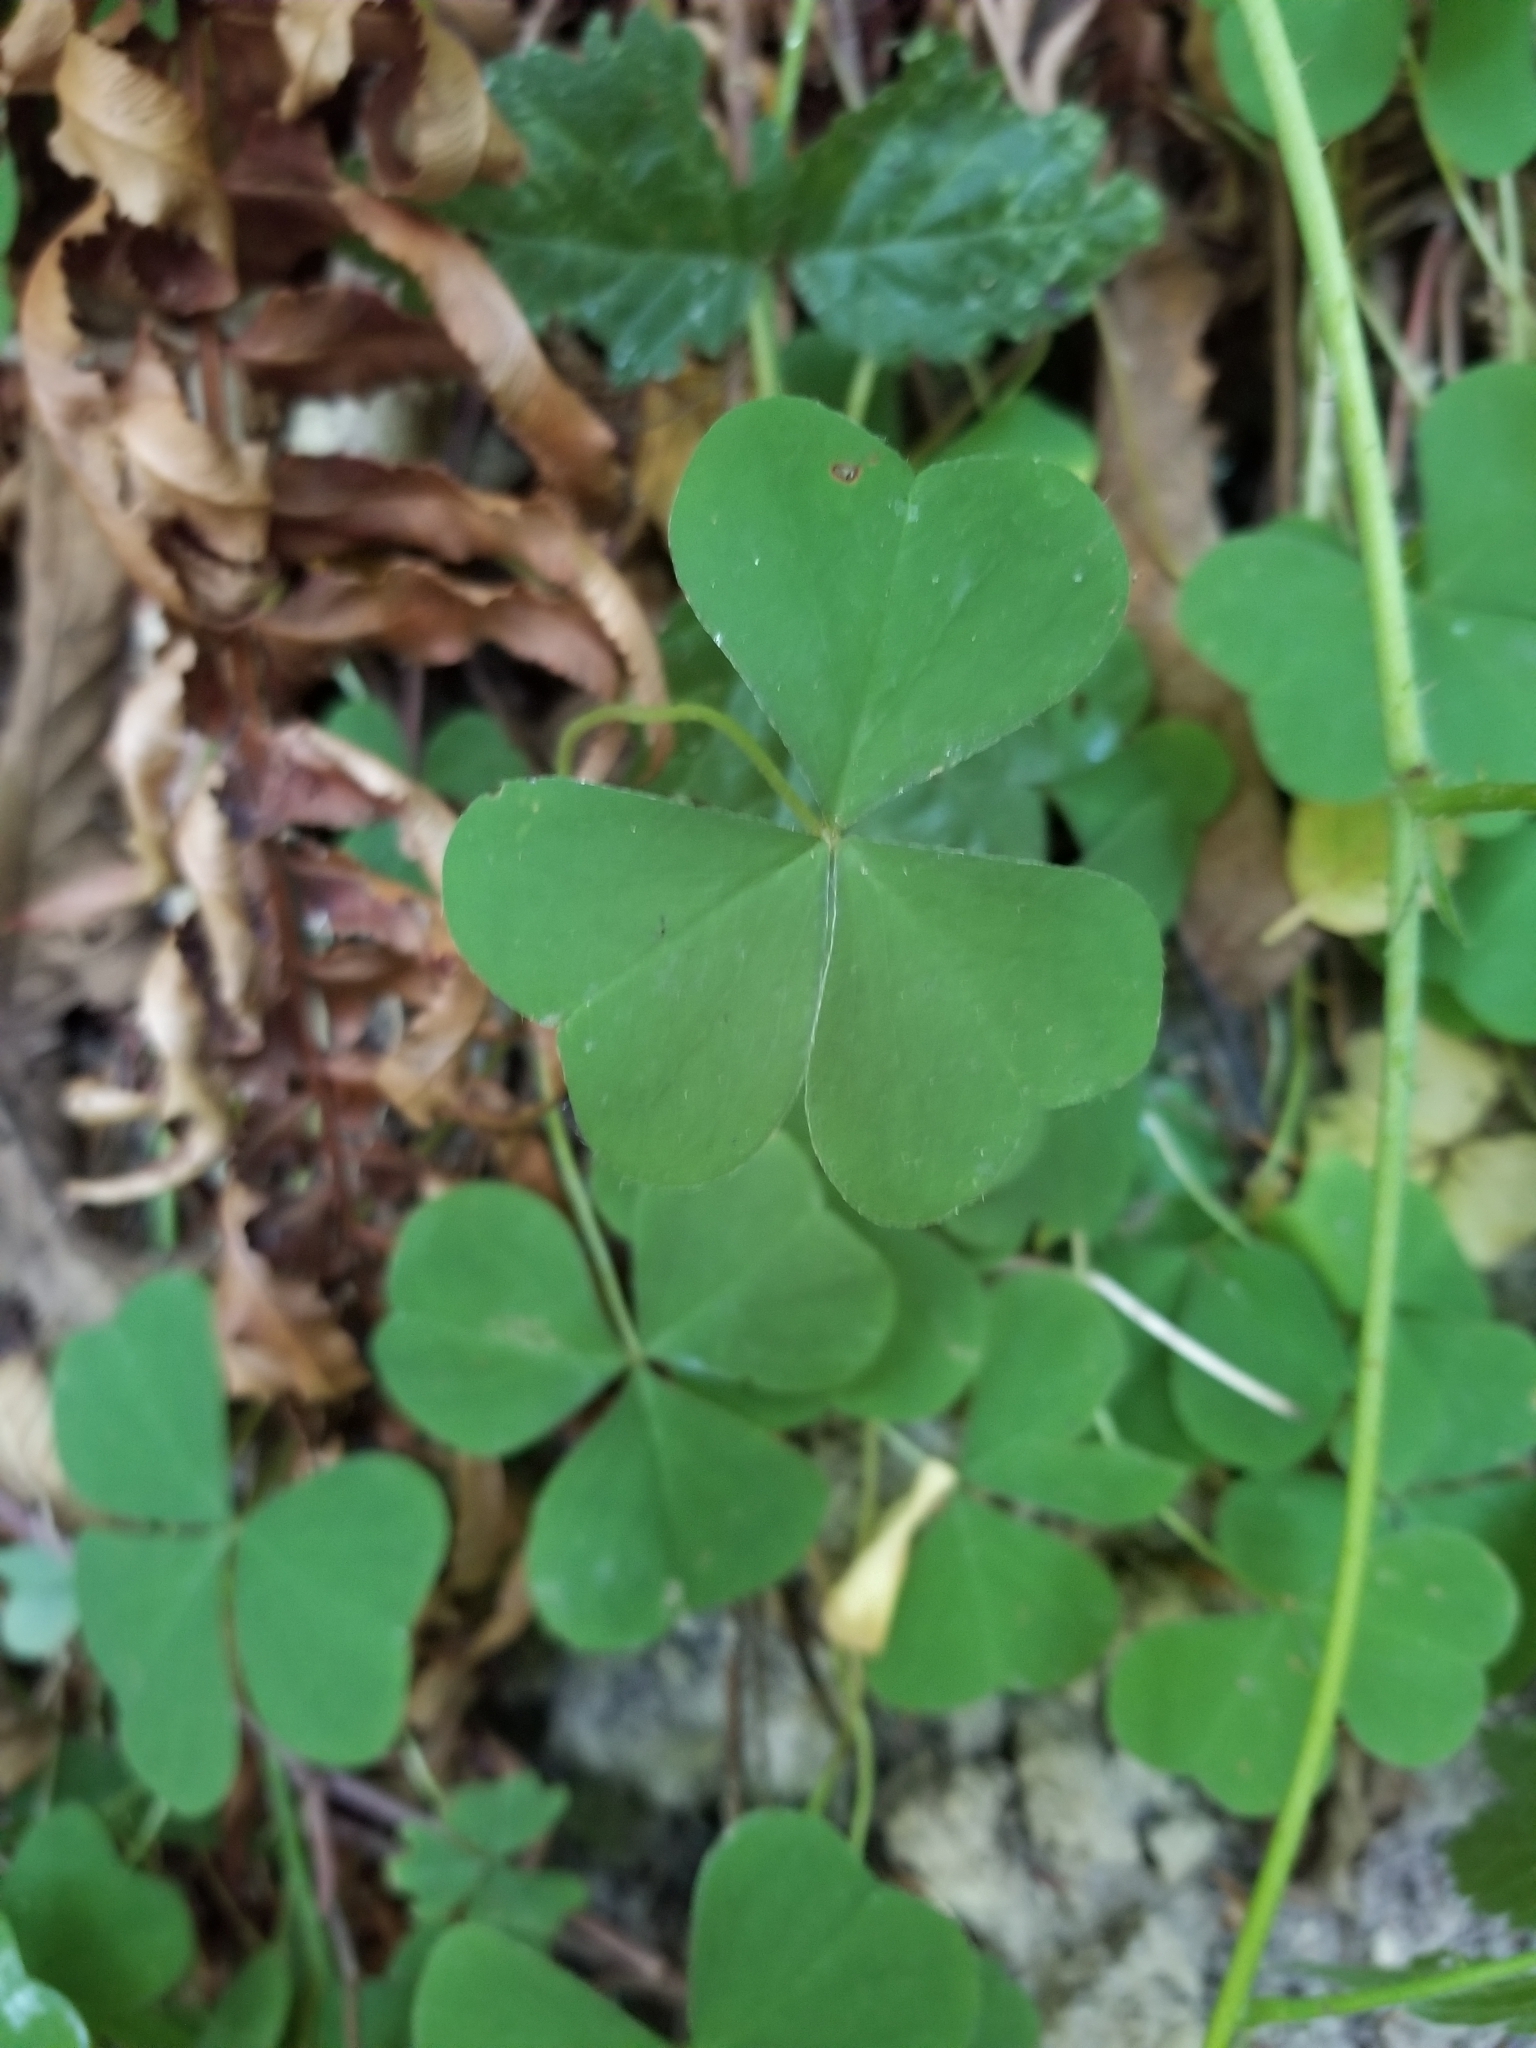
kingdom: Plantae
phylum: Tracheophyta
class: Magnoliopsida
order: Oxalidales
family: Oxalidaceae
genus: Oxalis
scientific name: Oxalis oregana
